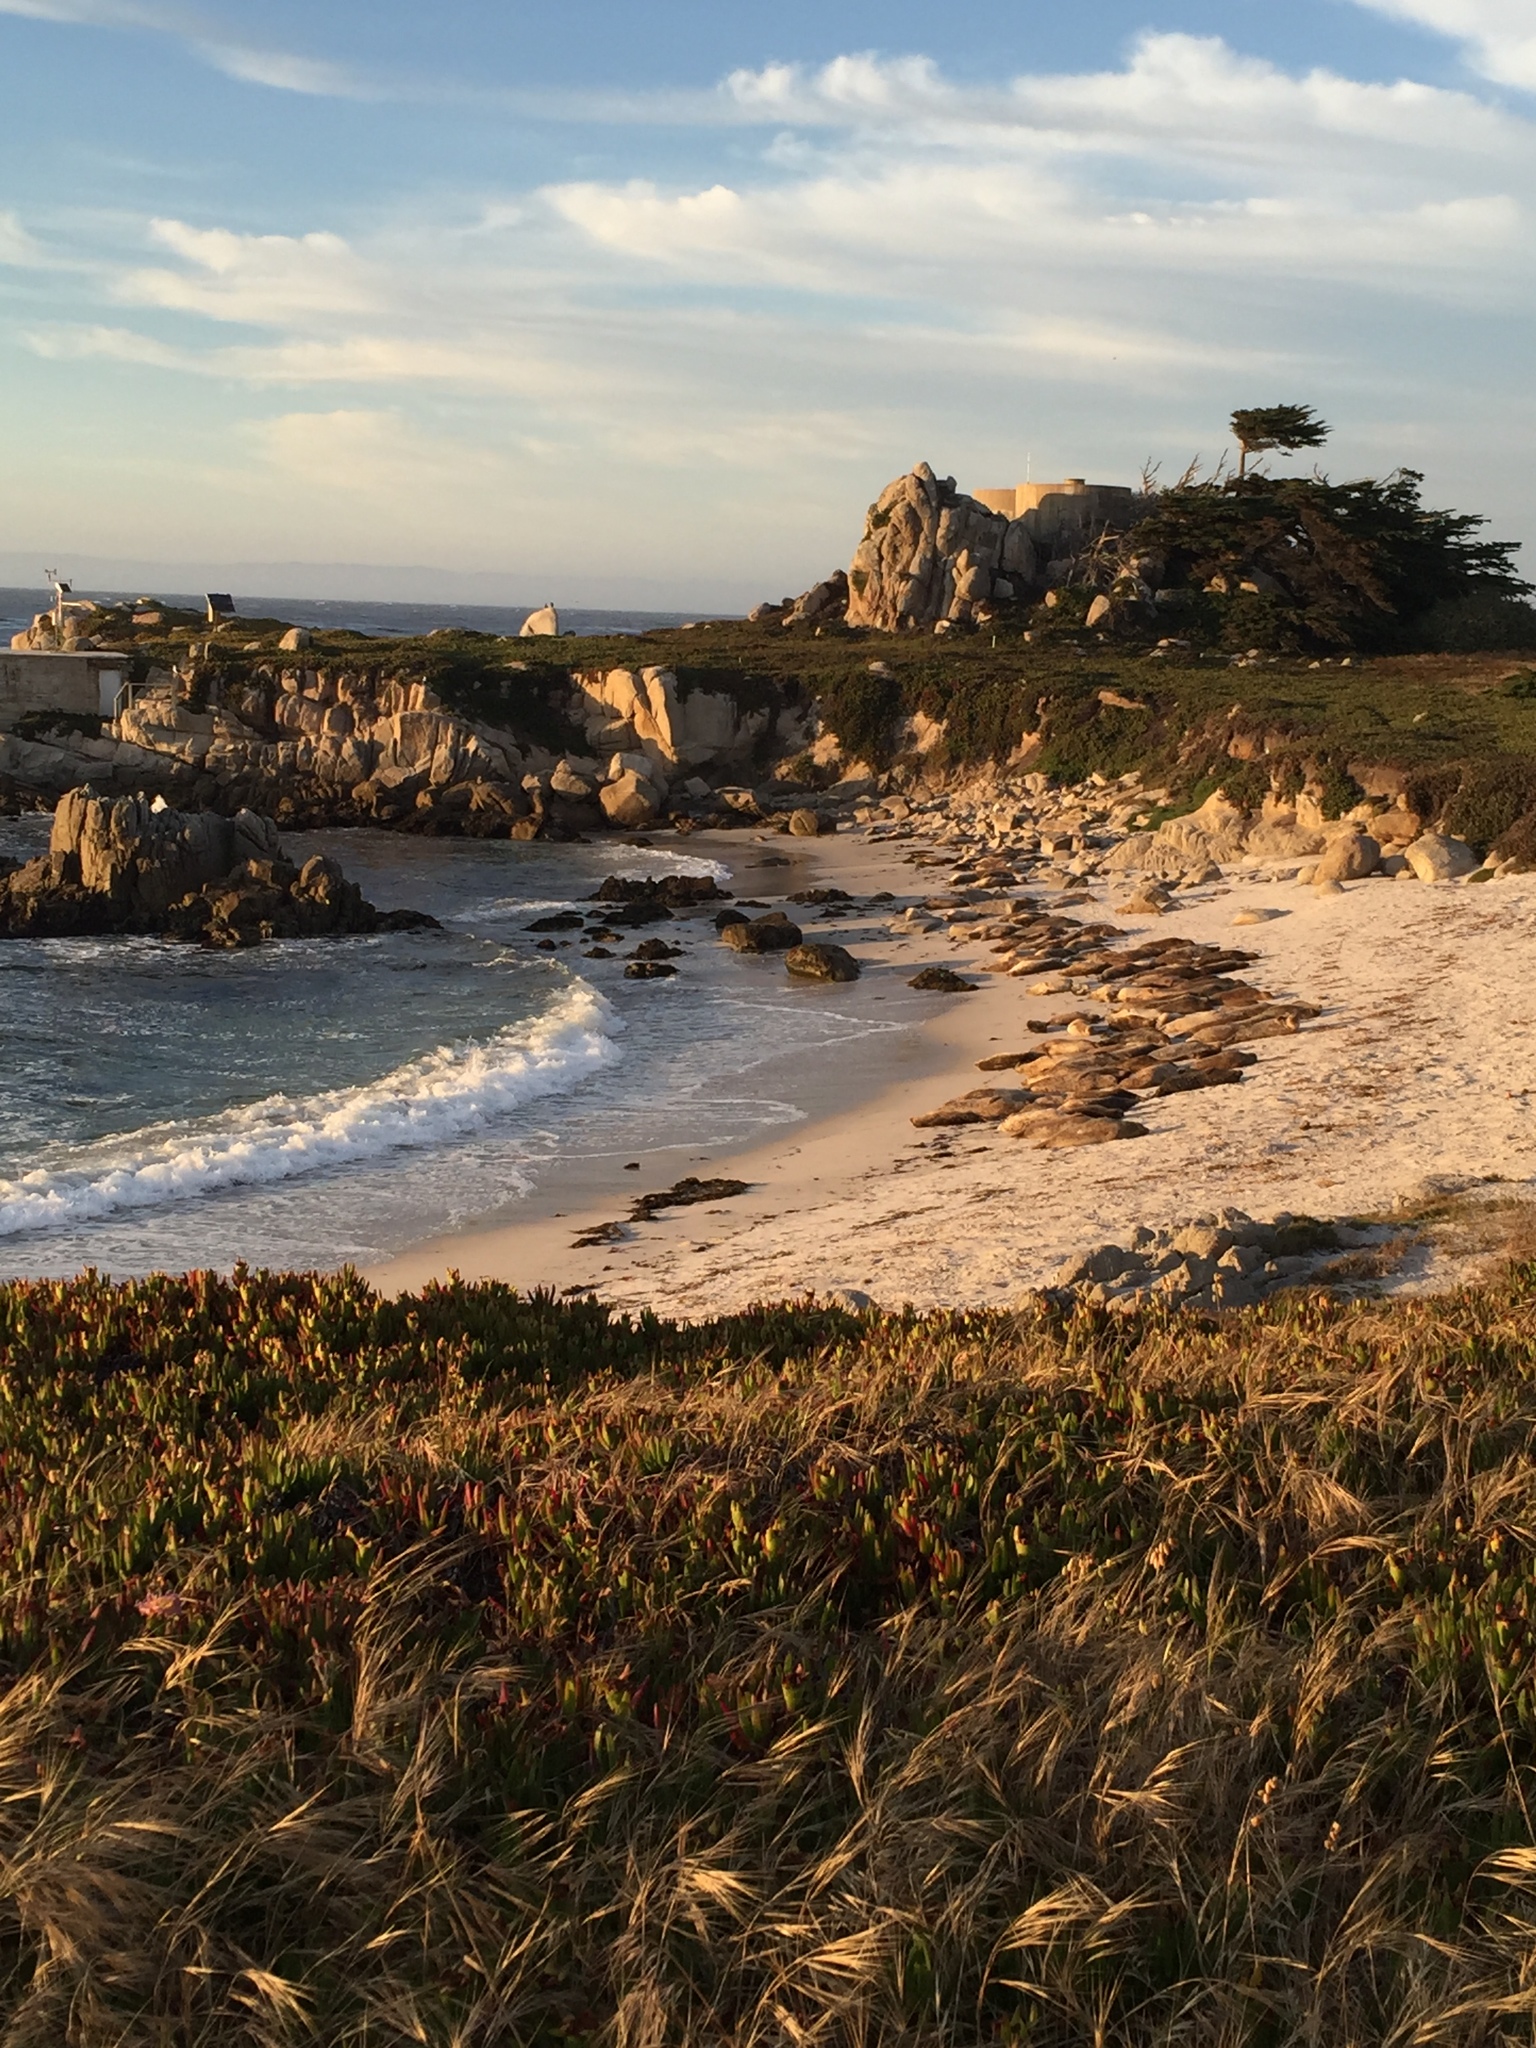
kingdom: Animalia
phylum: Chordata
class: Mammalia
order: Carnivora
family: Phocidae
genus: Phoca
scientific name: Phoca vitulina
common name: Harbor seal
